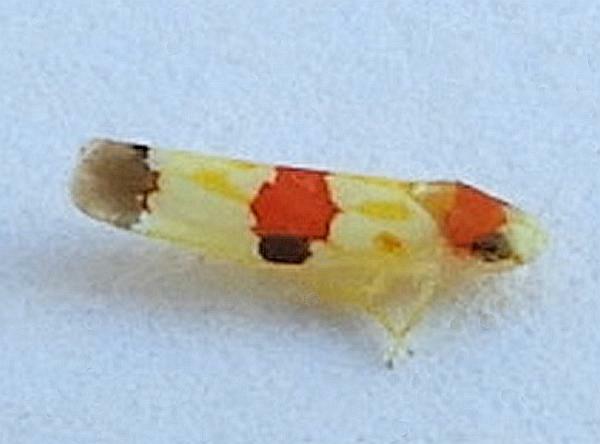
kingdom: Animalia
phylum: Arthropoda
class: Insecta
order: Hemiptera
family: Cicadellidae
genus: Erythroneura
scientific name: Erythroneura diva
